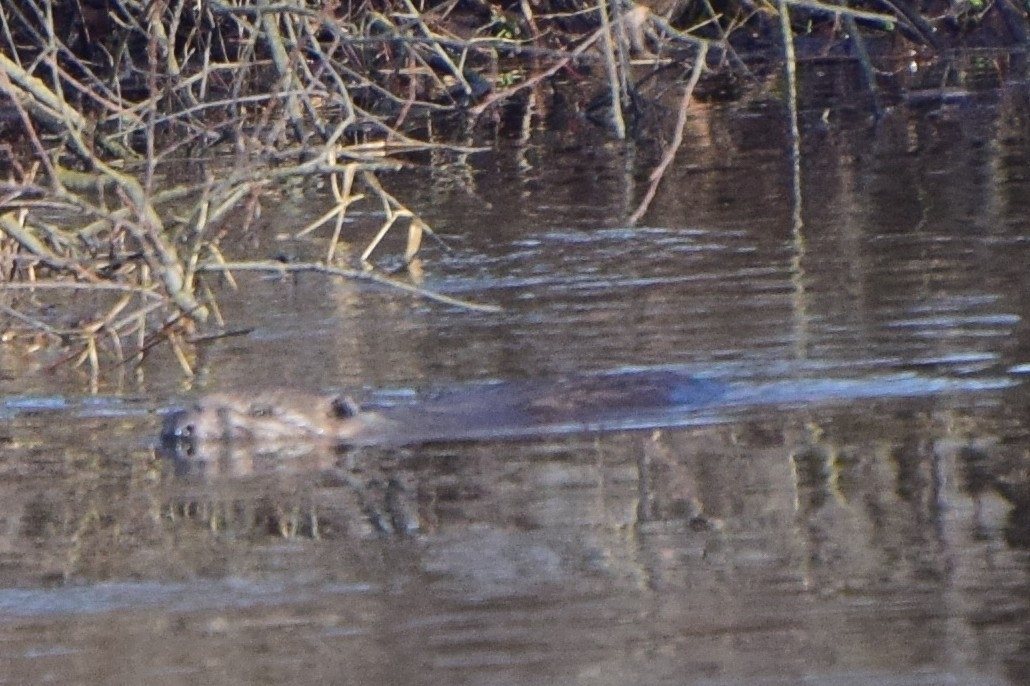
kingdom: Animalia
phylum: Chordata
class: Mammalia
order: Rodentia
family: Castoridae
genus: Castor
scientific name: Castor fiber
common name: Eurasian beaver
